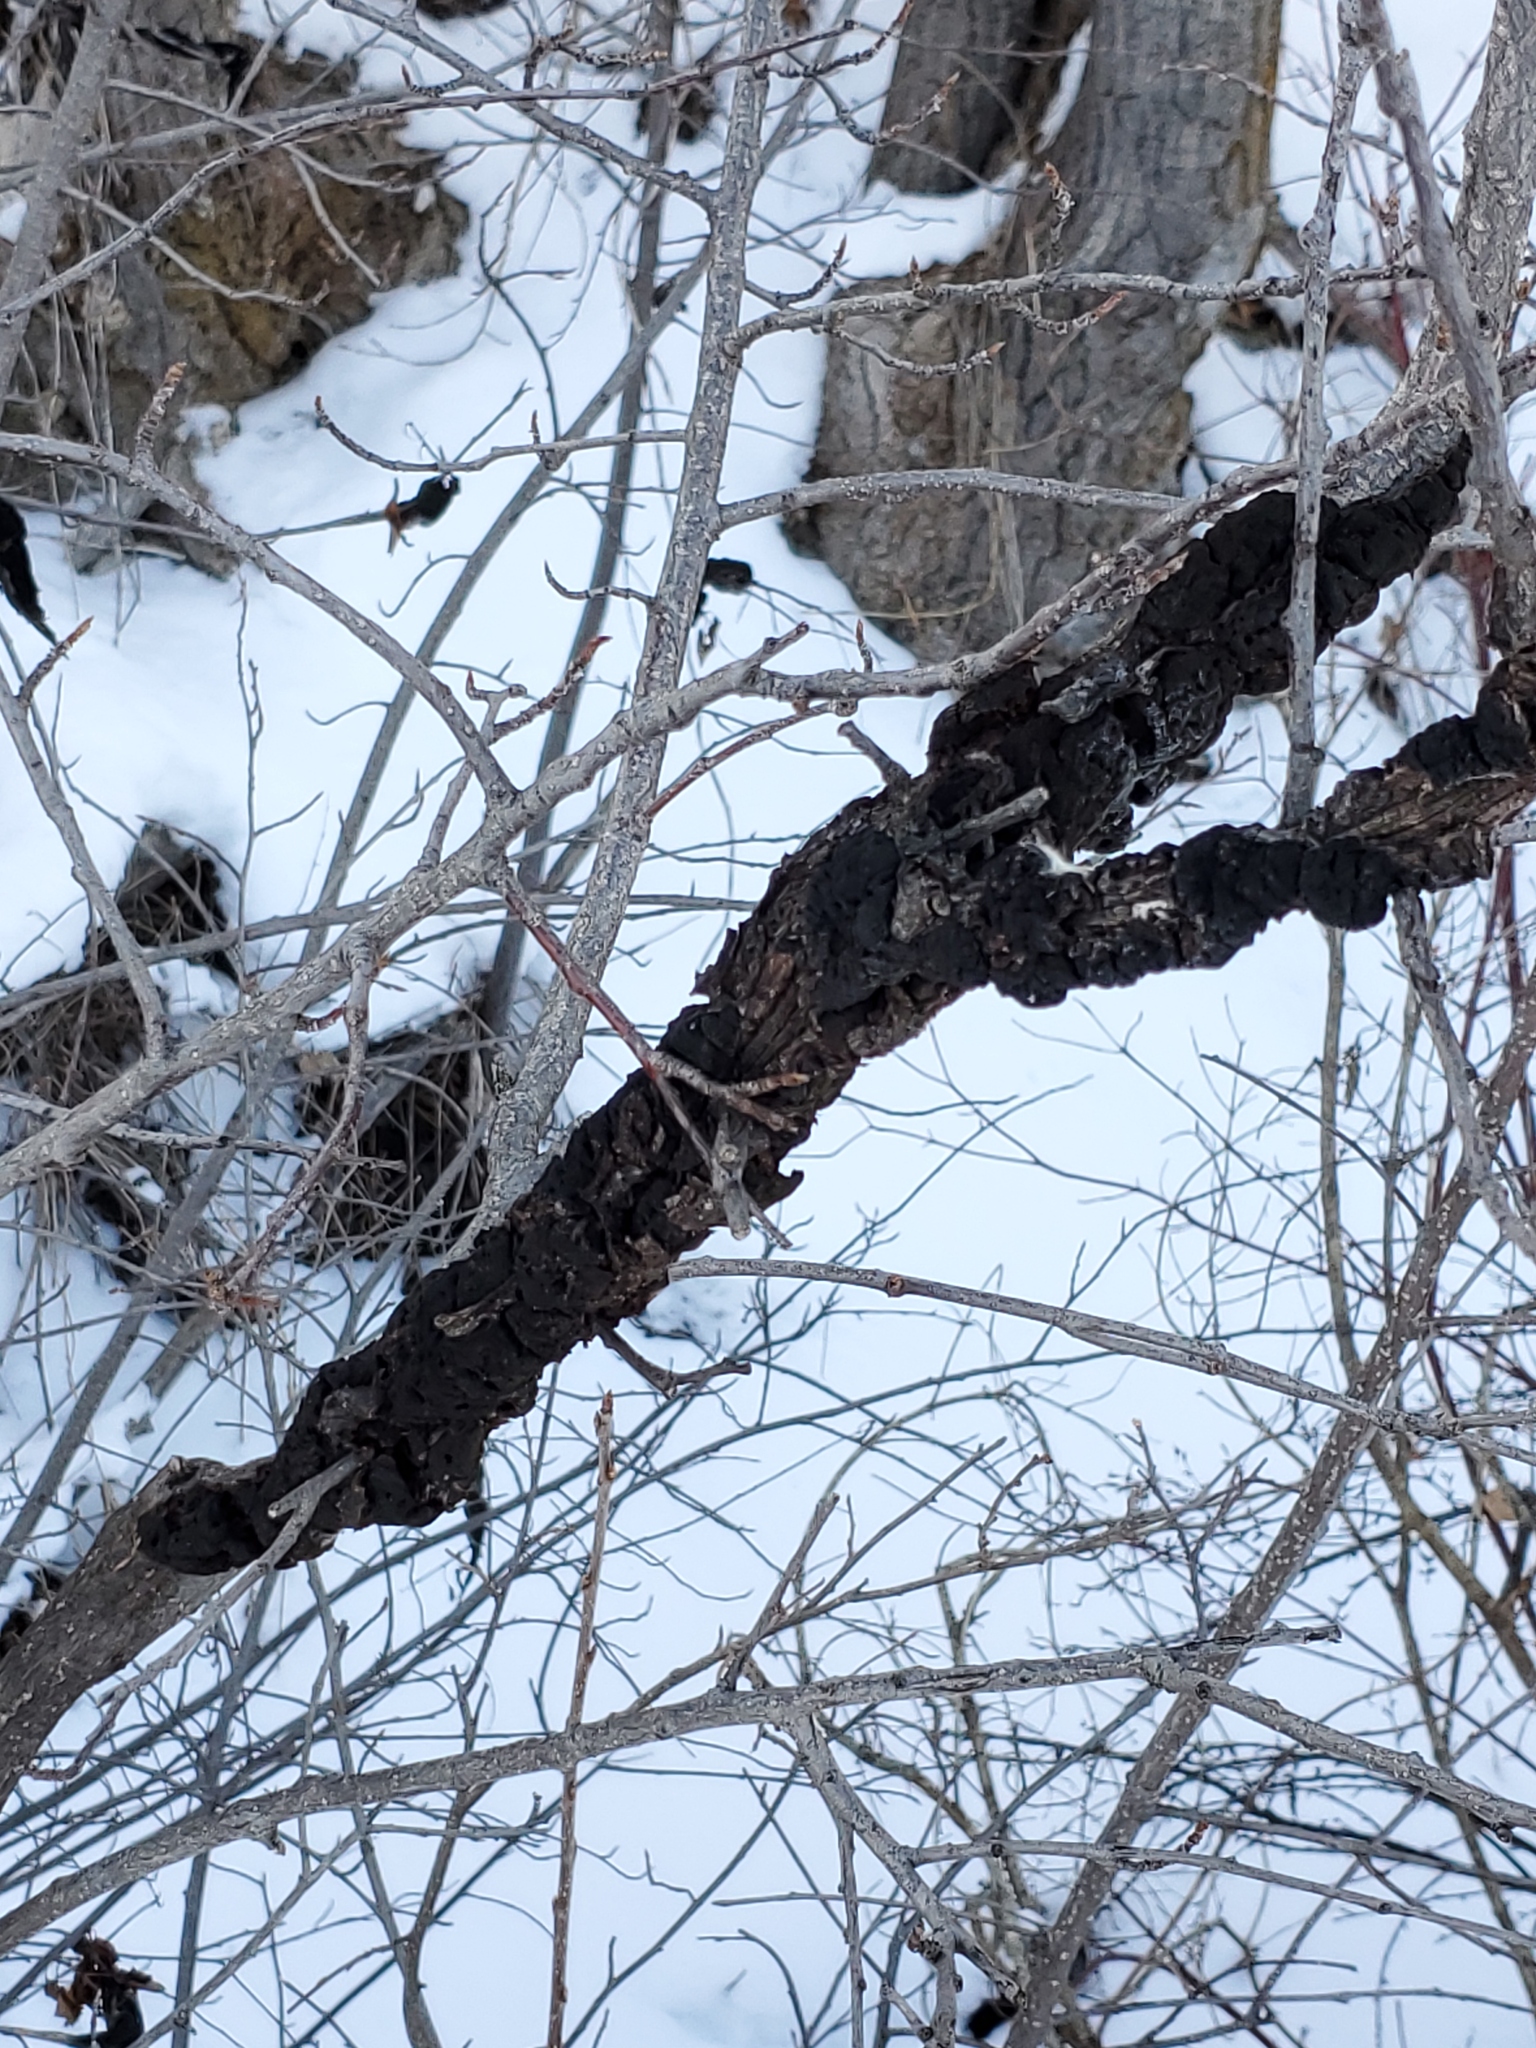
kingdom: Fungi
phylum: Ascomycota
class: Dothideomycetes
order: Venturiales
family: Venturiaceae
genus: Apiosporina
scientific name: Apiosporina morbosa
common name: Black knot
